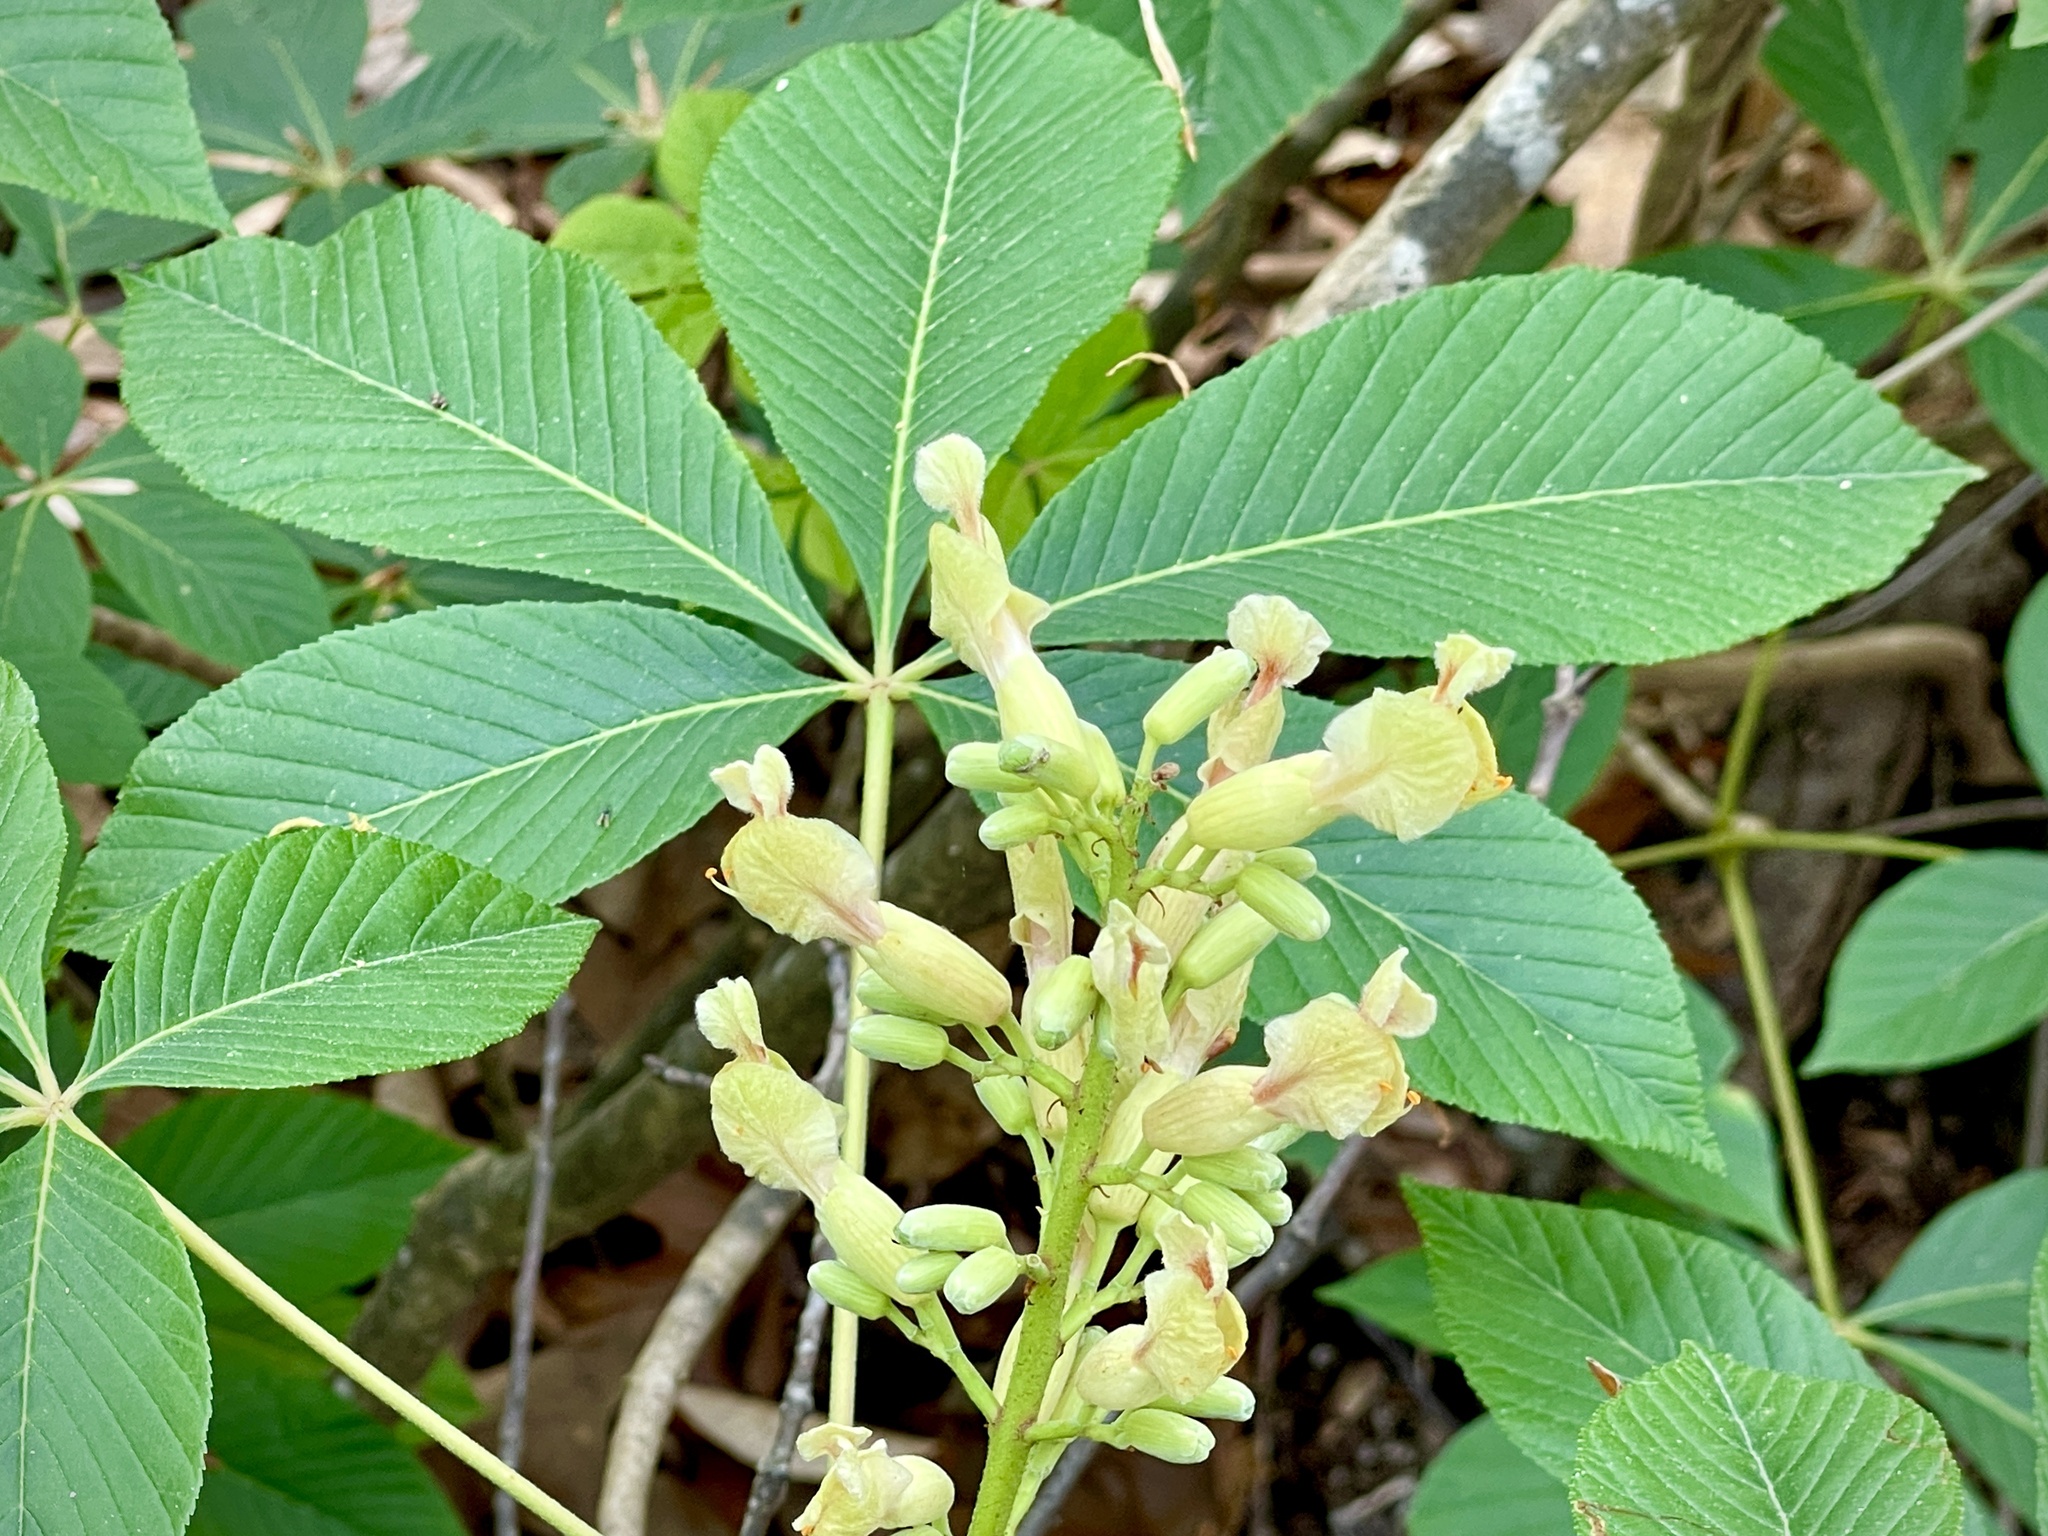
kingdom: Plantae
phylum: Tracheophyta
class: Magnoliopsida
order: Sapindales
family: Sapindaceae
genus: Aesculus
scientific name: Aesculus sylvatica
